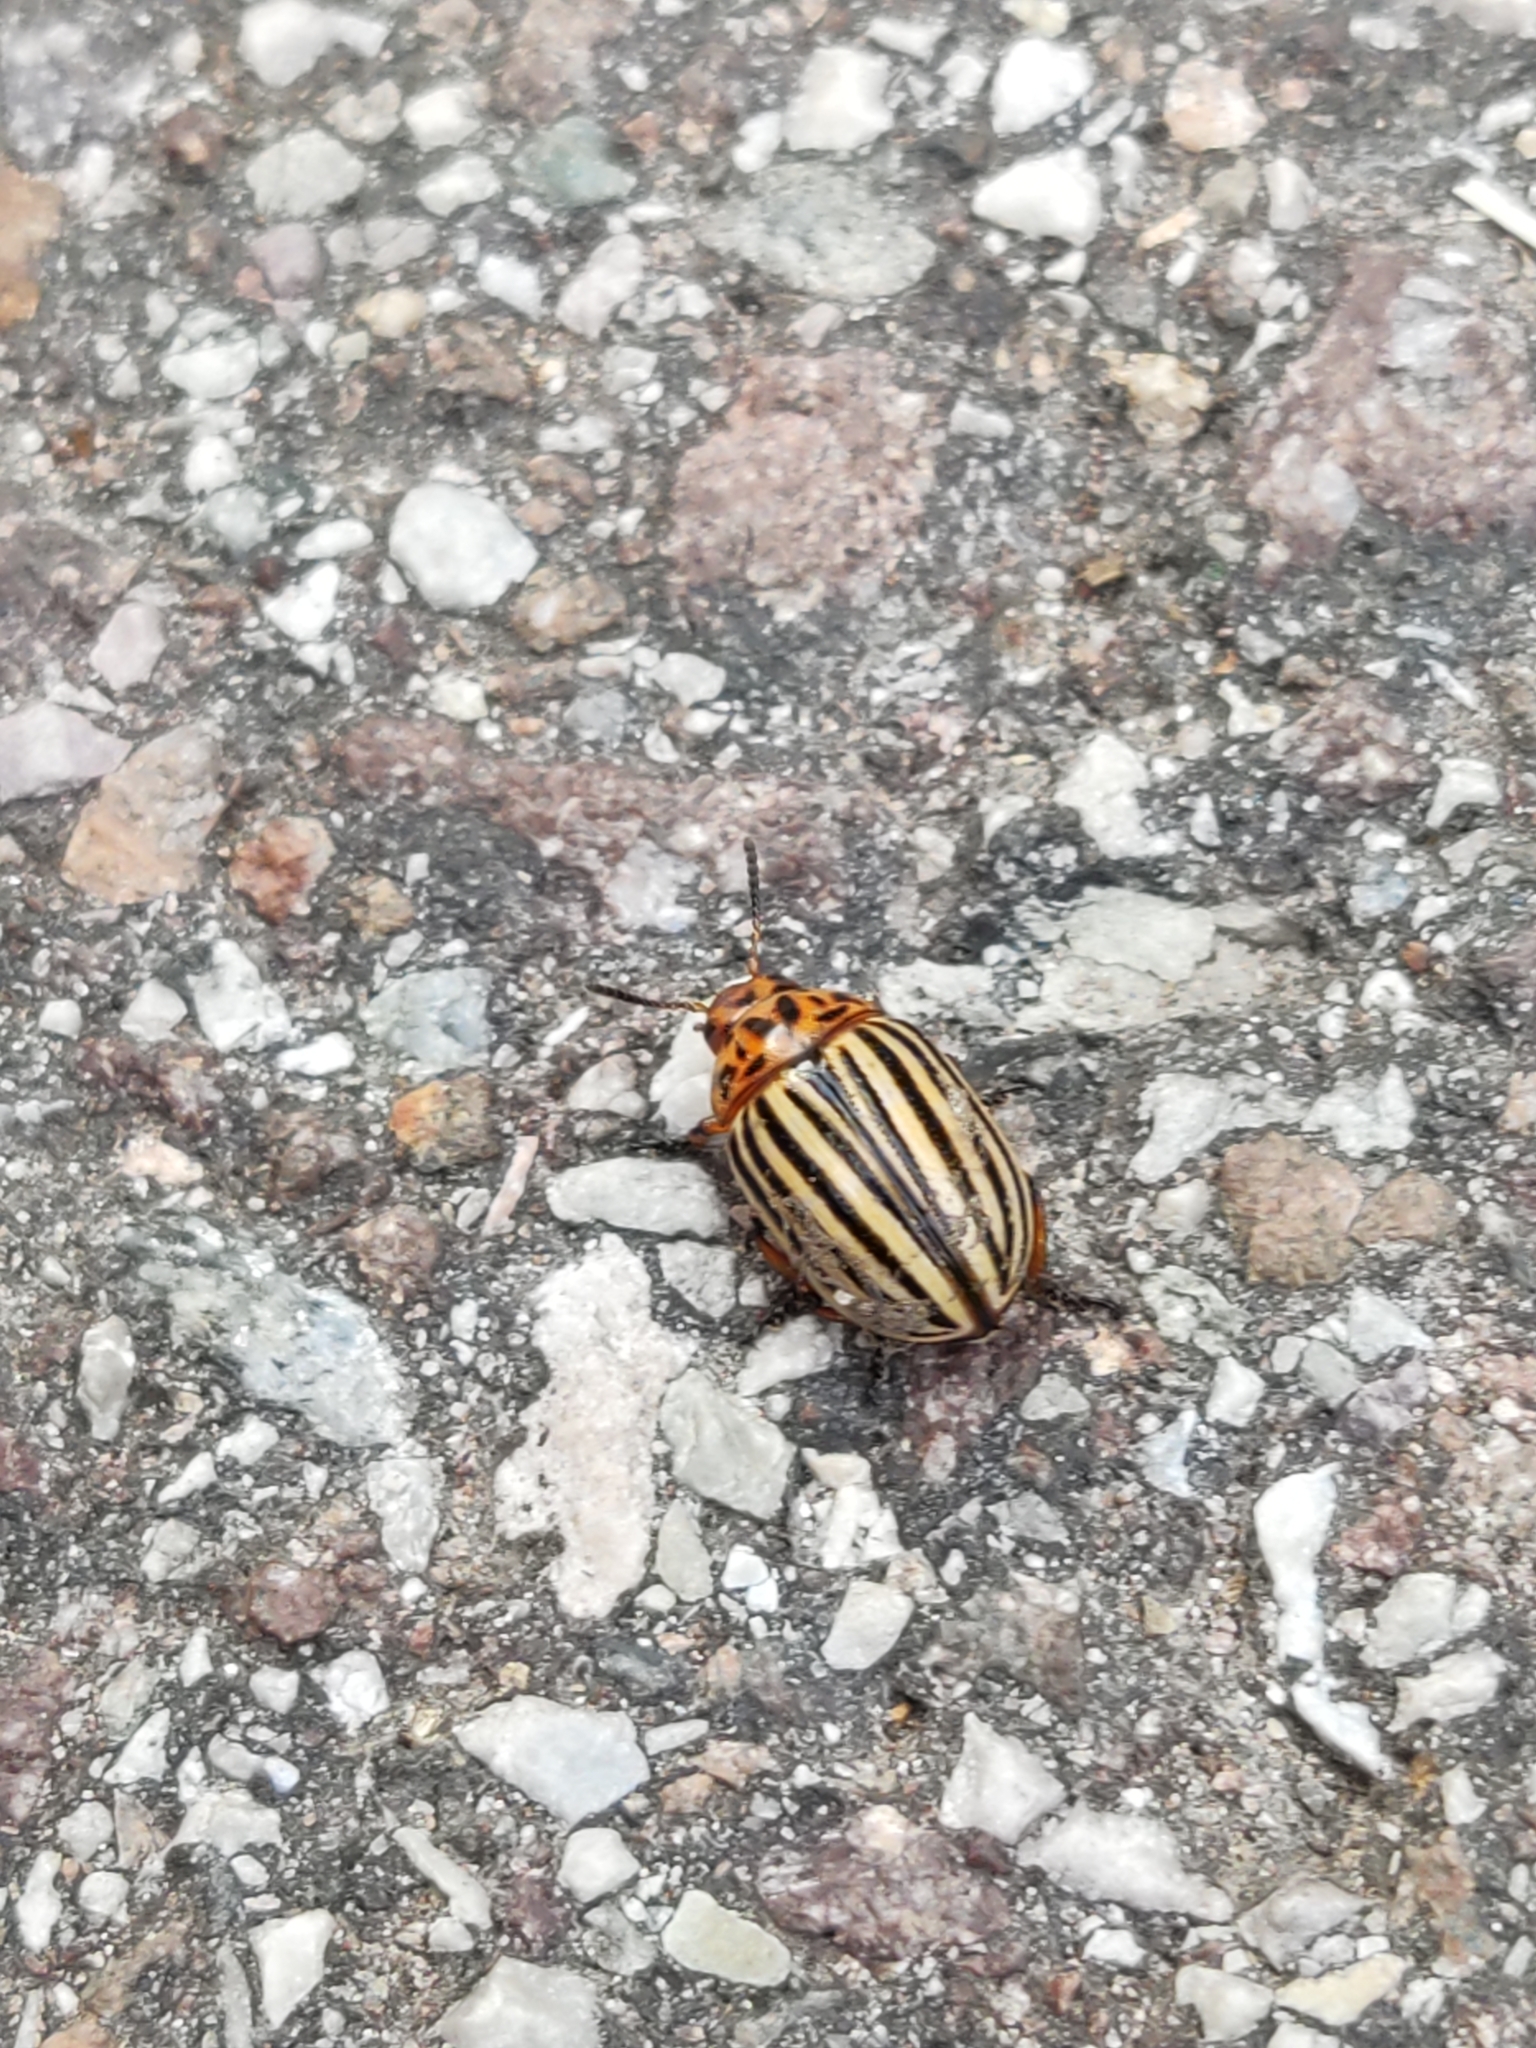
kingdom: Animalia
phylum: Arthropoda
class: Insecta
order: Coleoptera
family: Chrysomelidae
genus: Leptinotarsa
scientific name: Leptinotarsa decemlineata
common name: Colorado potato beetle
